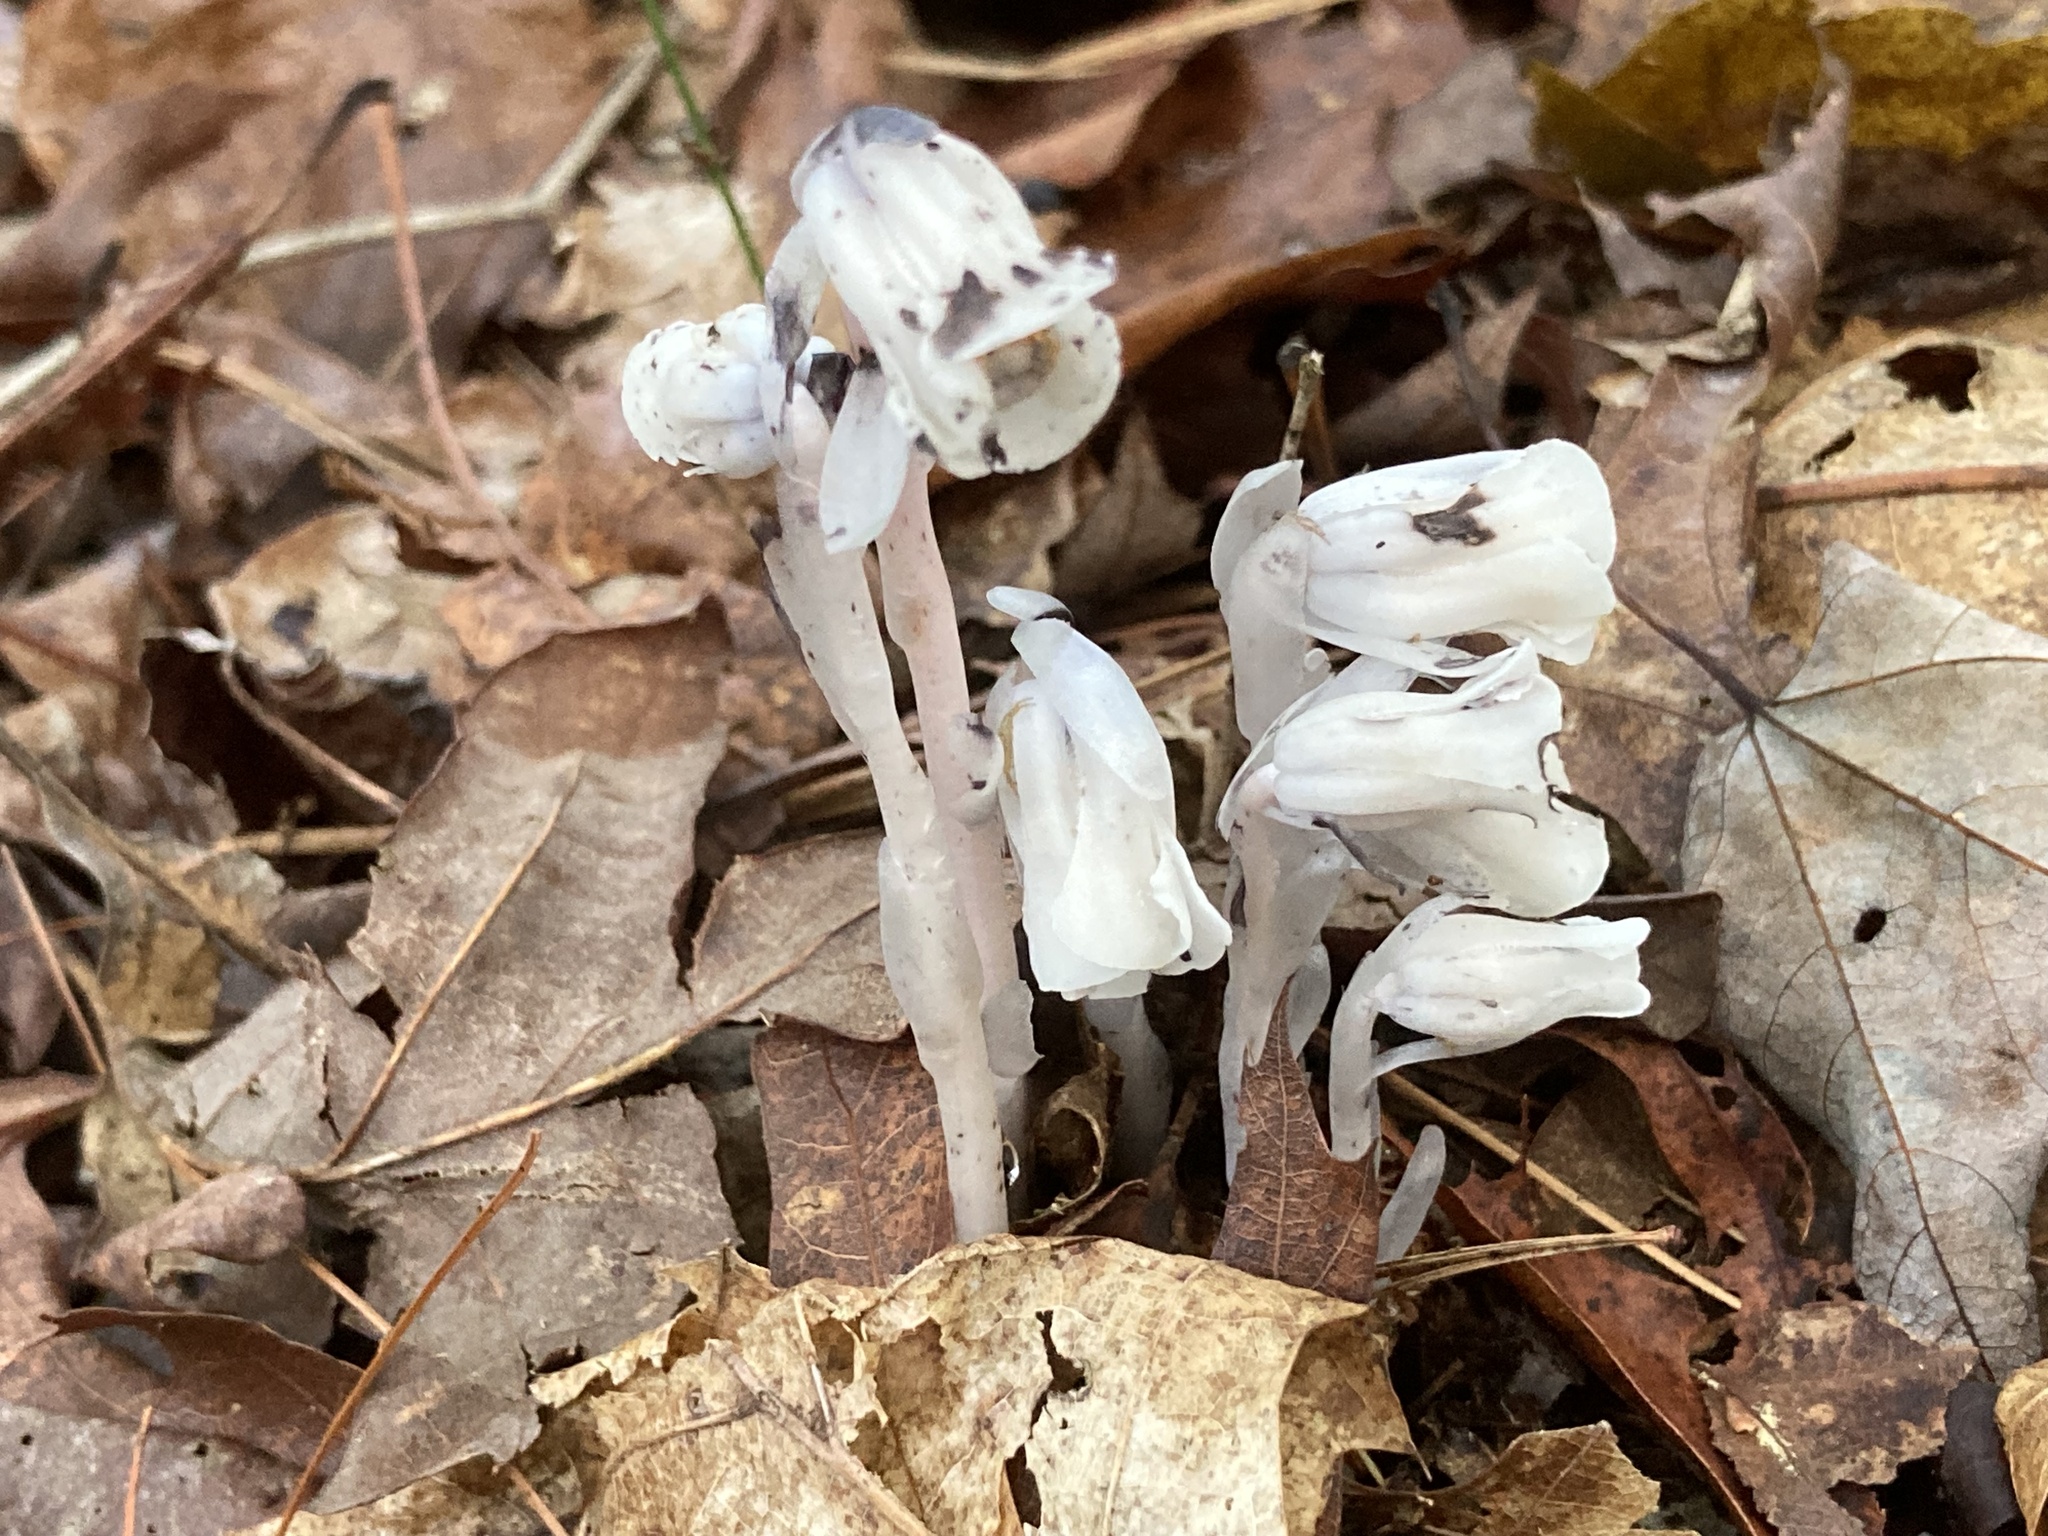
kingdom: Plantae
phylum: Tracheophyta
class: Magnoliopsida
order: Ericales
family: Ericaceae
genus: Monotropa
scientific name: Monotropa uniflora
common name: Convulsion root
